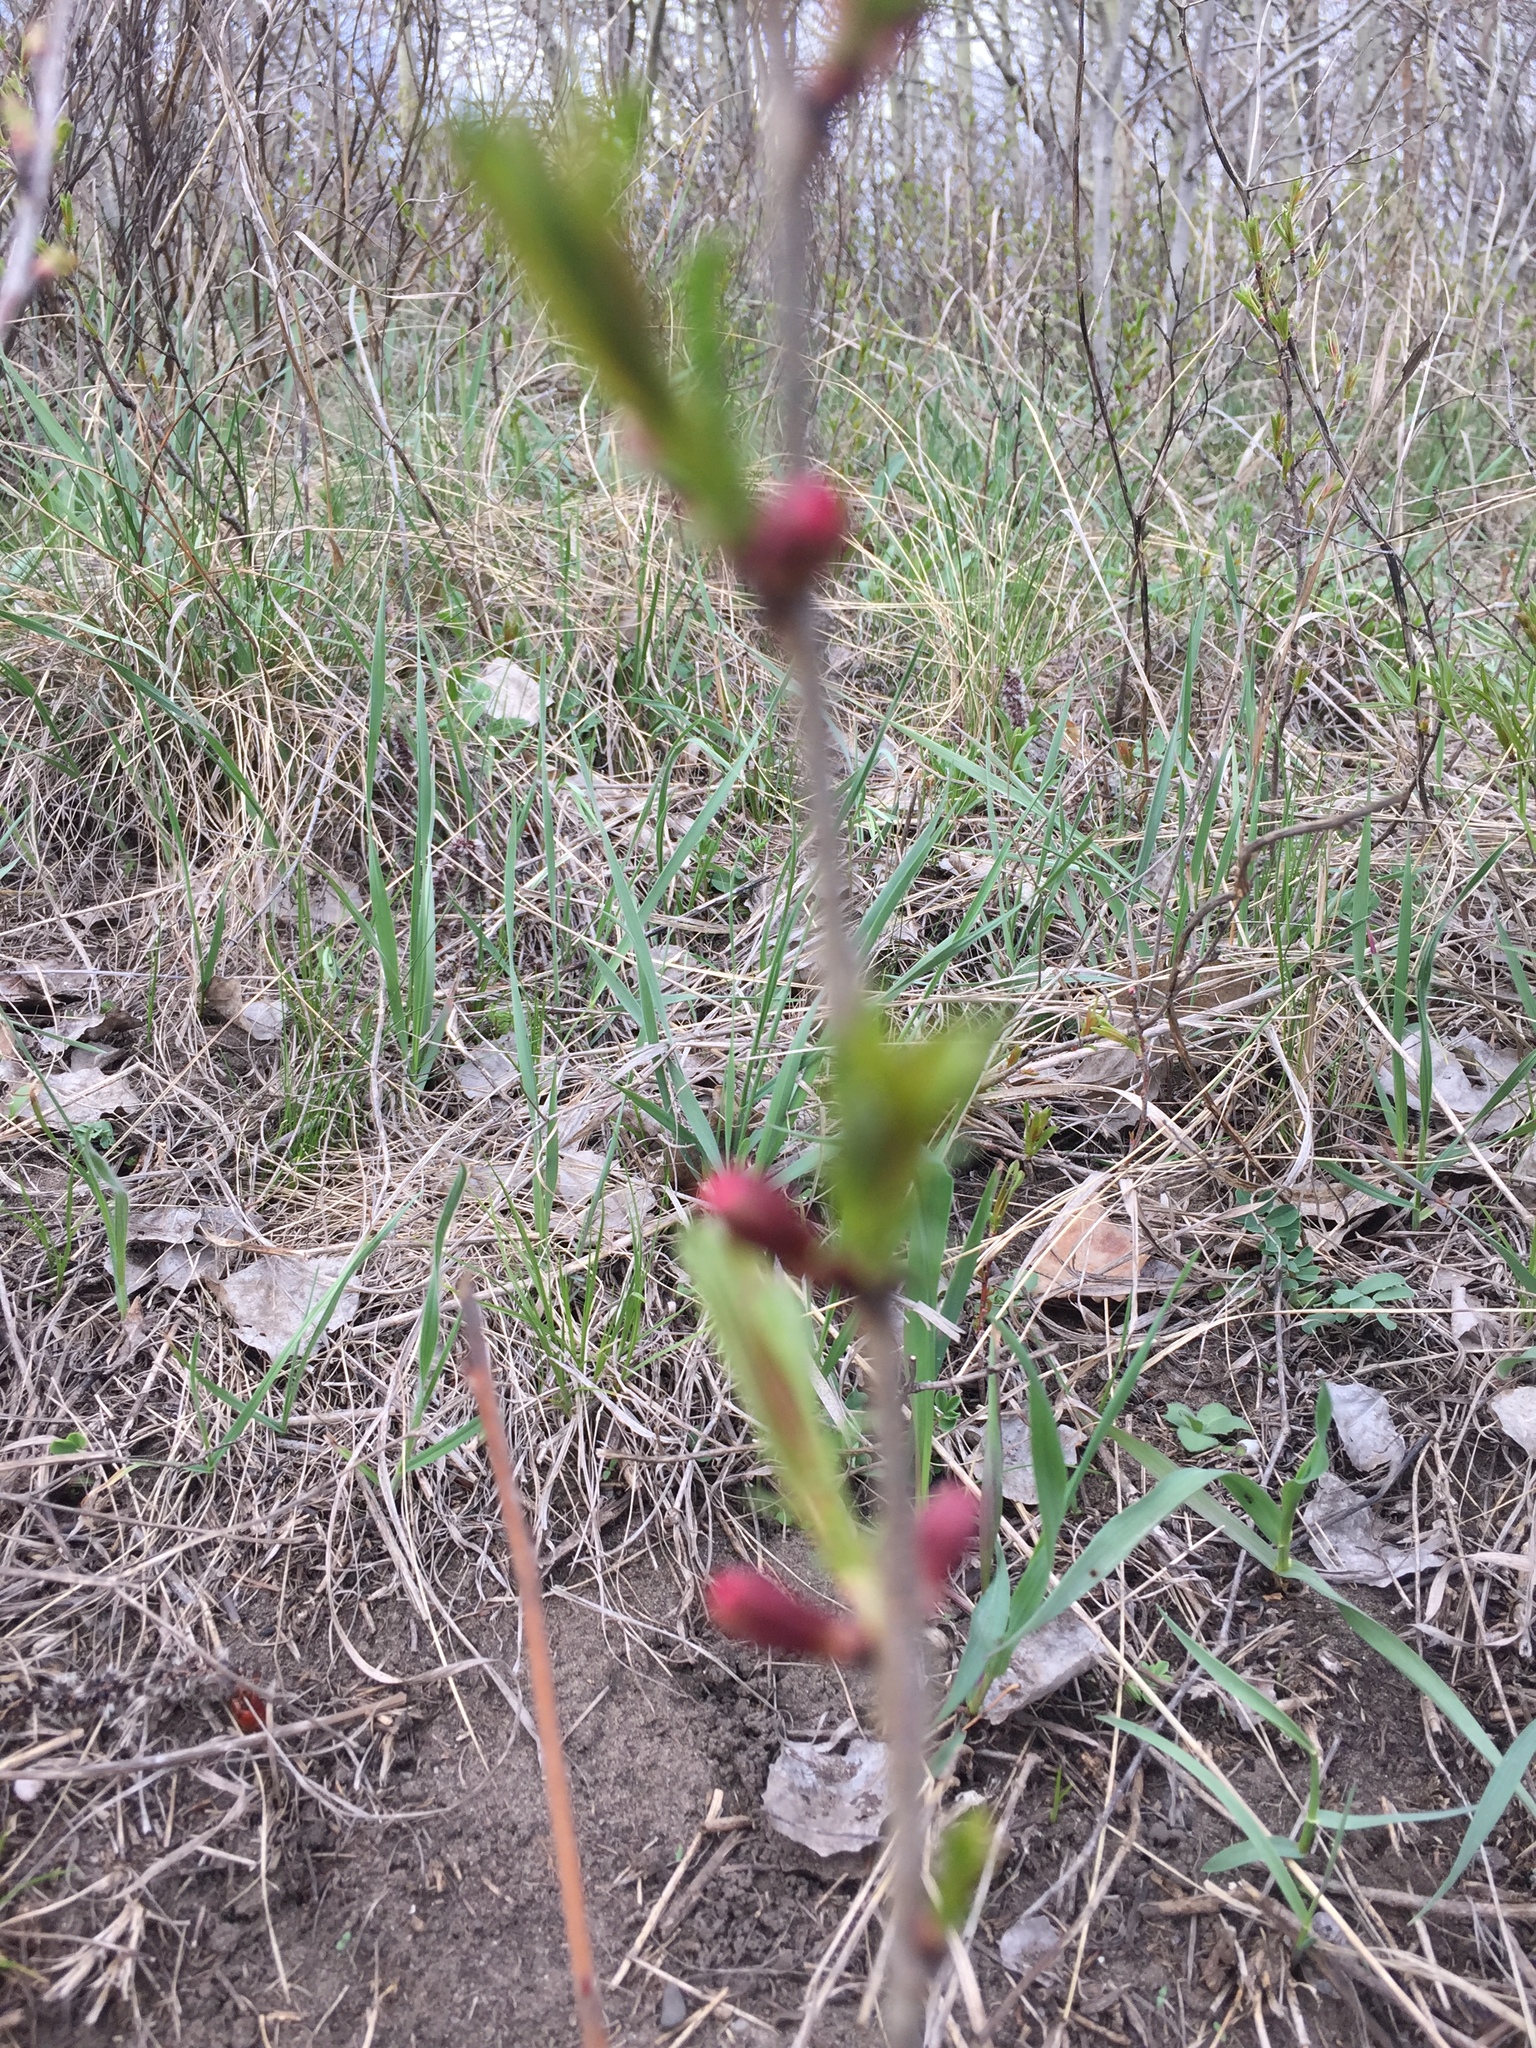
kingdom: Plantae
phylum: Tracheophyta
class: Magnoliopsida
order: Rosales
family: Rosaceae
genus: Prunus
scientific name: Prunus tenella
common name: Dwarf russian almond
